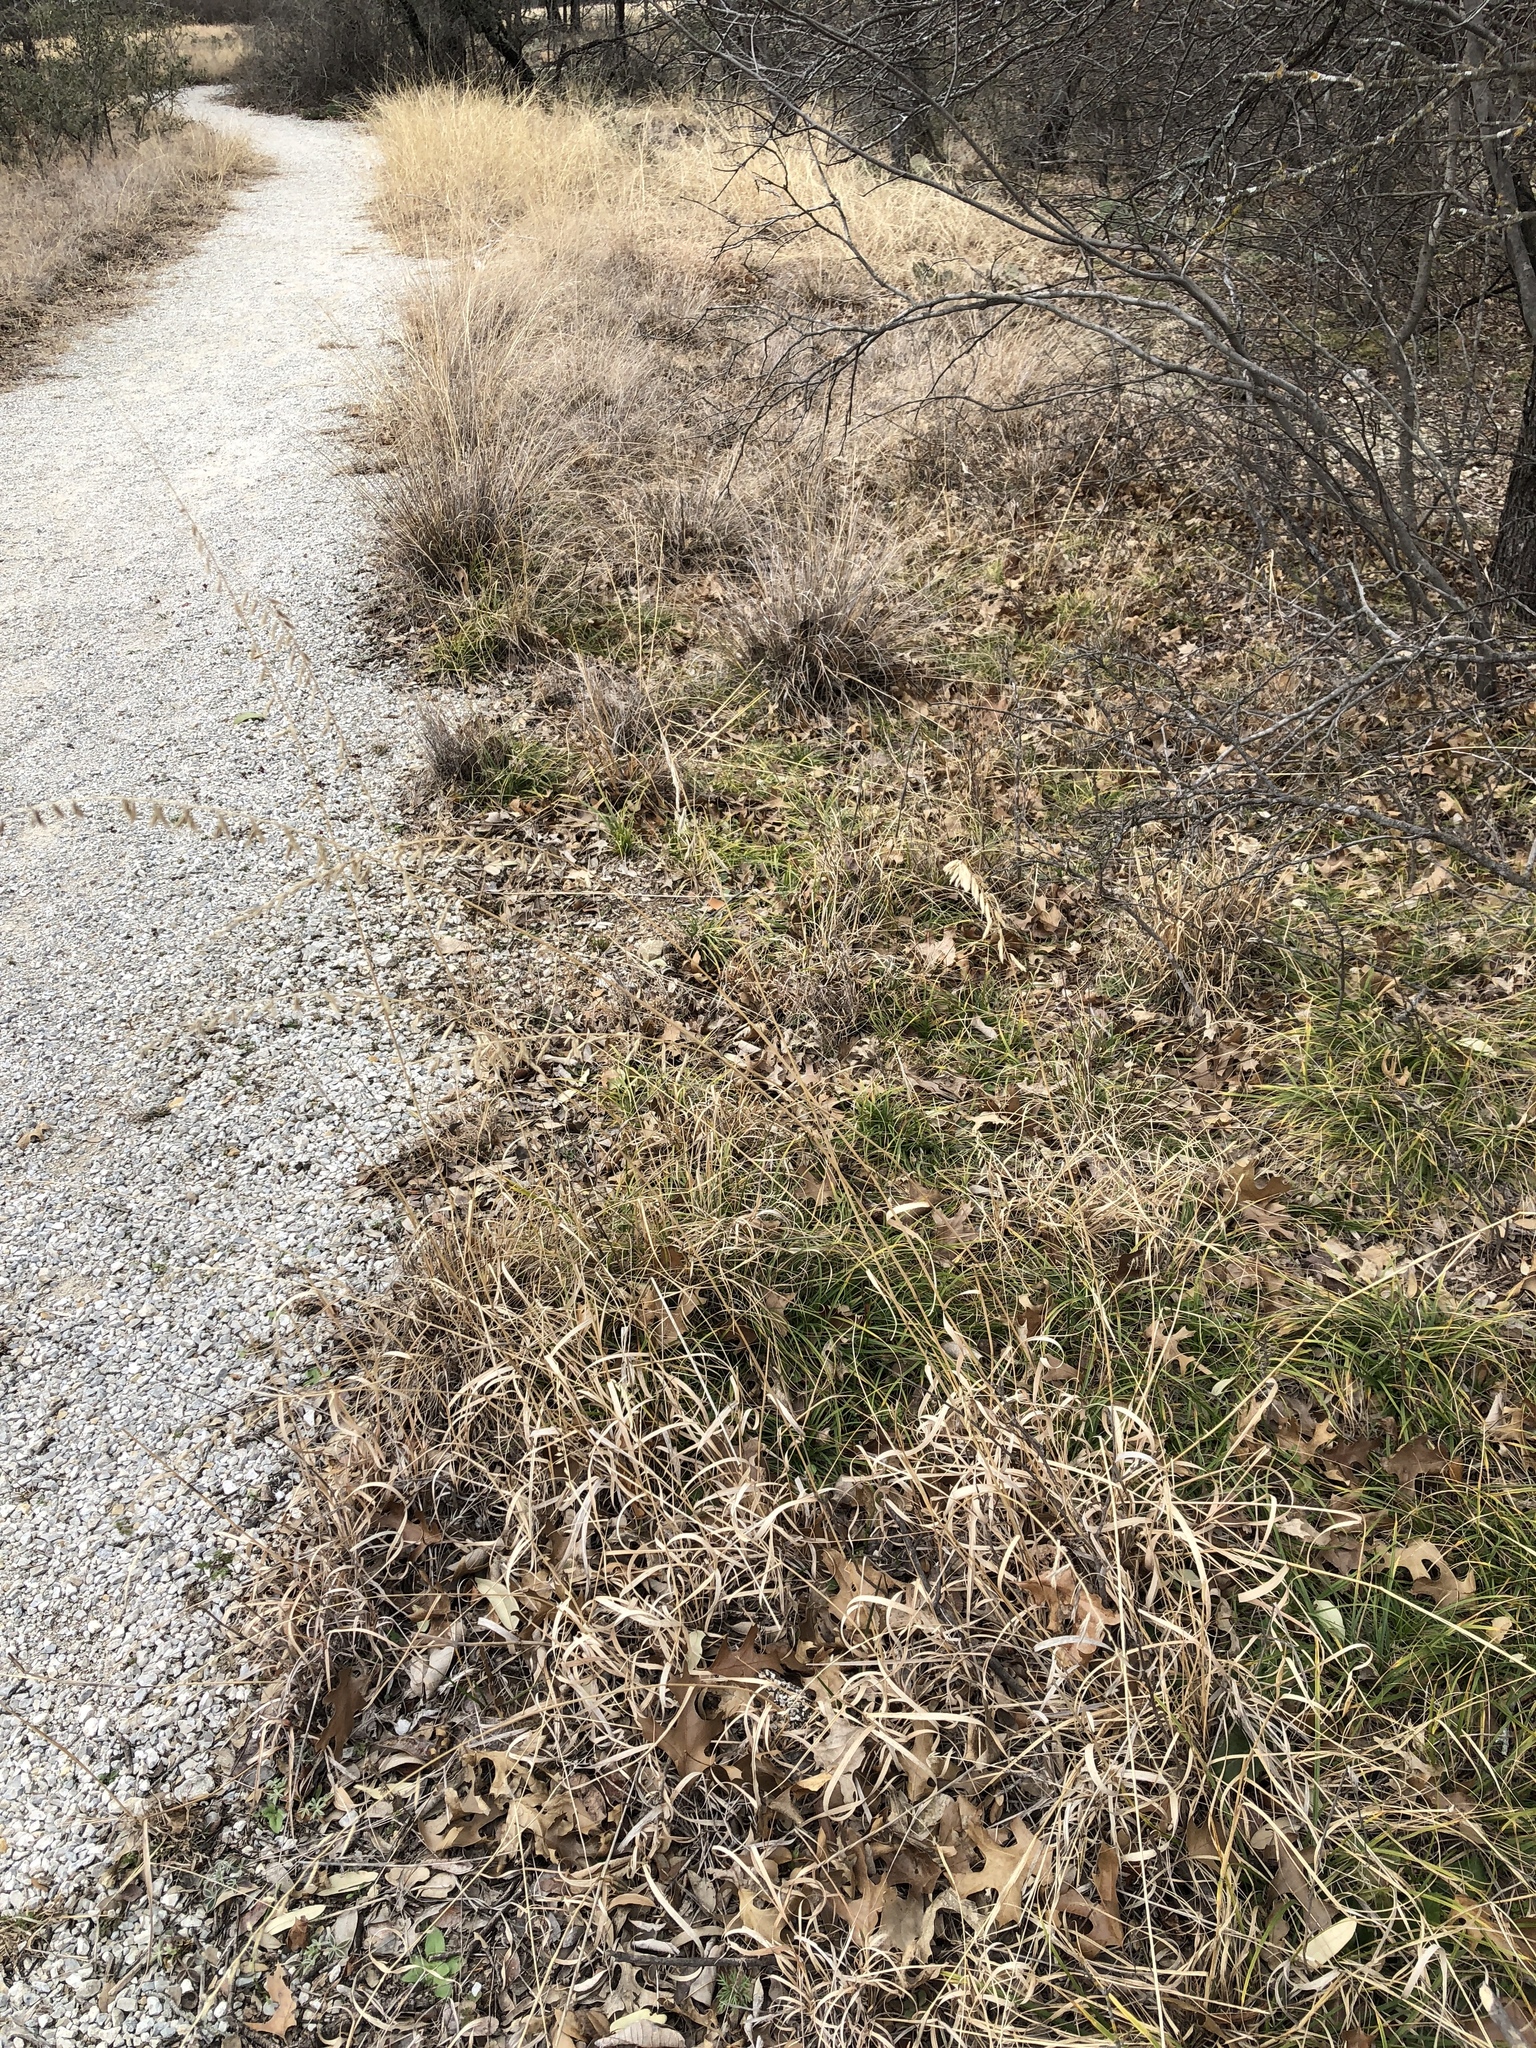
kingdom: Plantae
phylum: Tracheophyta
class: Liliopsida
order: Poales
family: Poaceae
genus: Bouteloua
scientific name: Bouteloua curtipendula
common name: Side-oats grama
